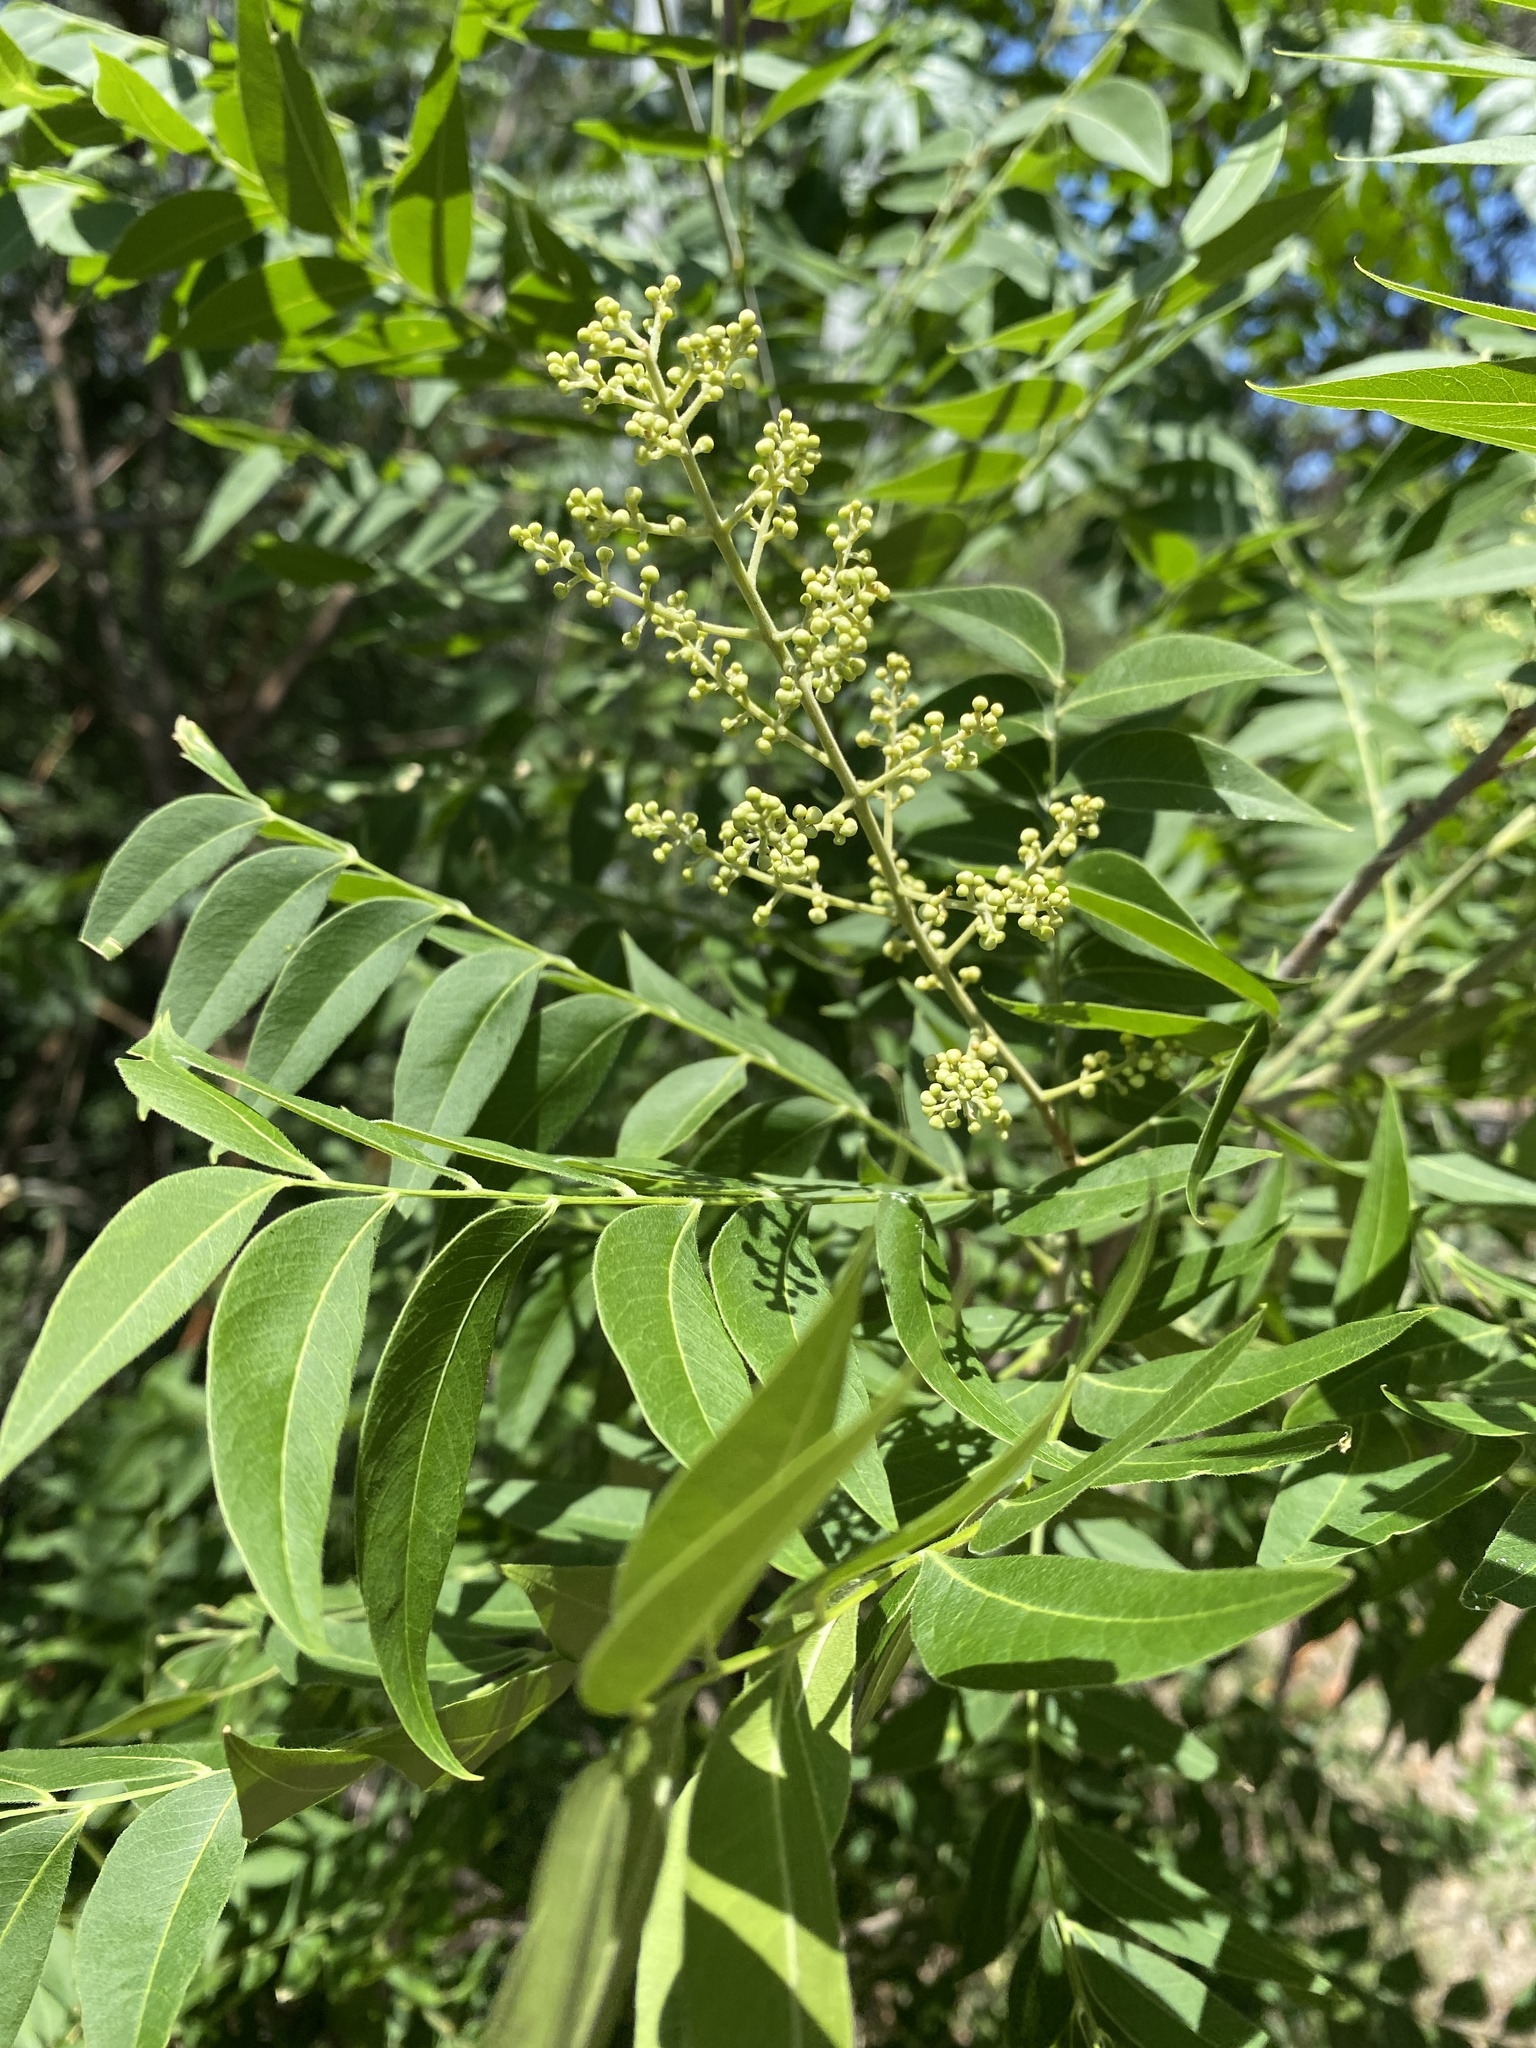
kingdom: Plantae
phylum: Tracheophyta
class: Magnoliopsida
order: Sapindales
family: Sapindaceae
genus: Sapindus
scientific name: Sapindus drummondii
